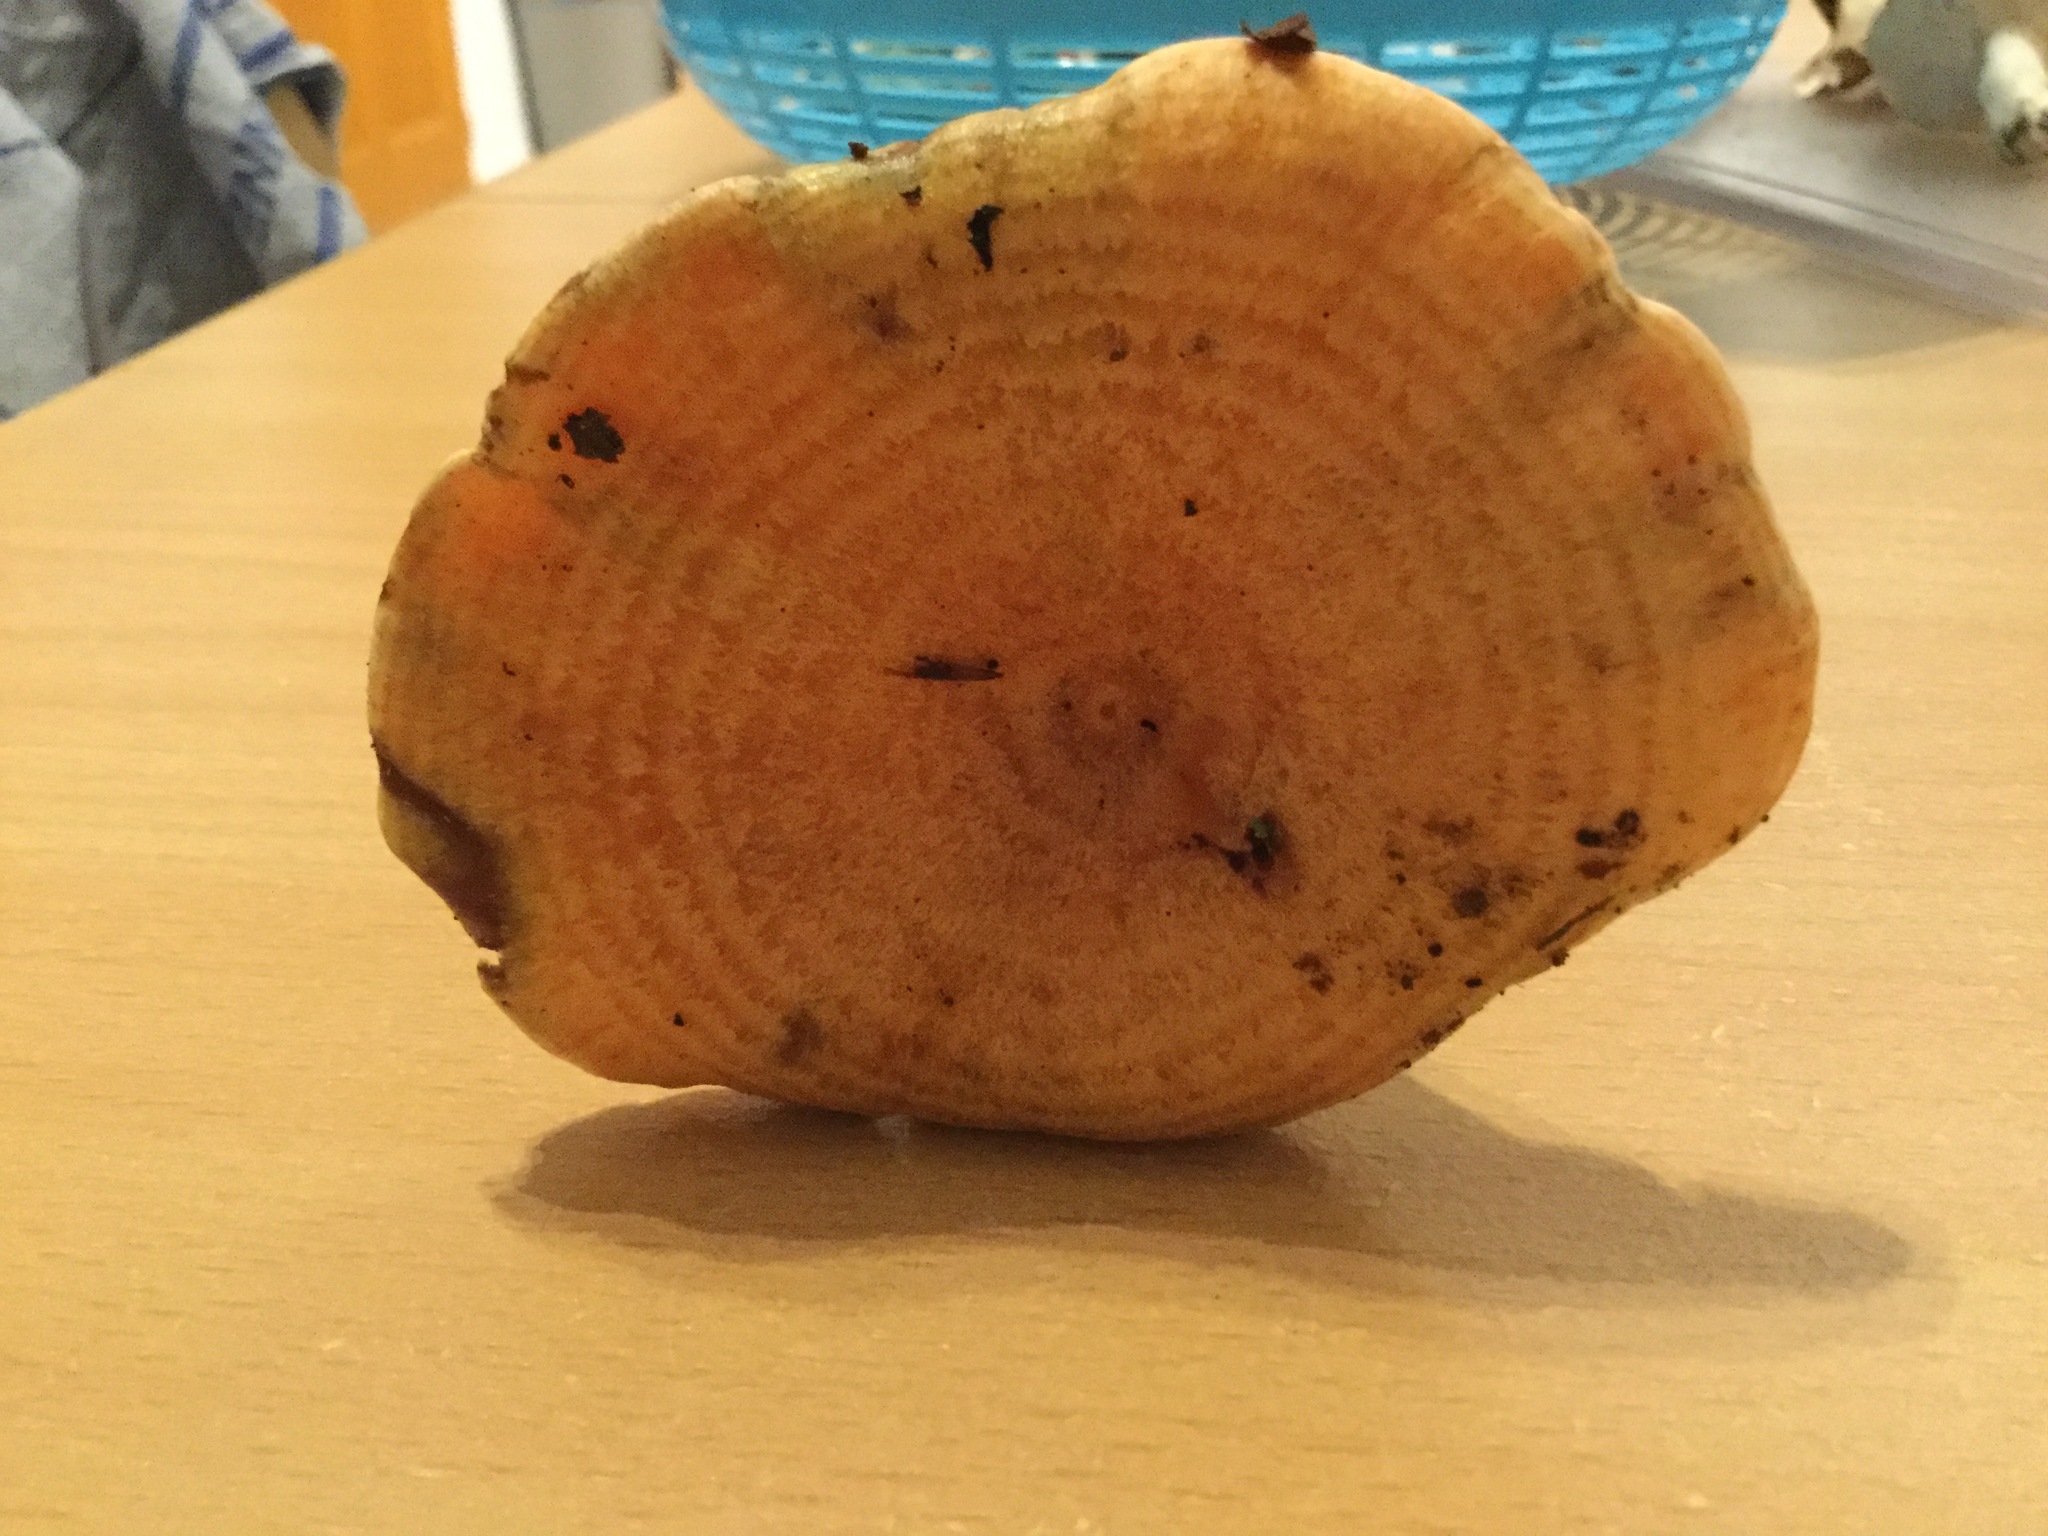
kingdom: Fungi
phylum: Basidiomycota
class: Agaricomycetes
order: Russulales
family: Russulaceae
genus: Lactarius
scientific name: Lactarius deliciosus
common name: Saffron milk-cap
